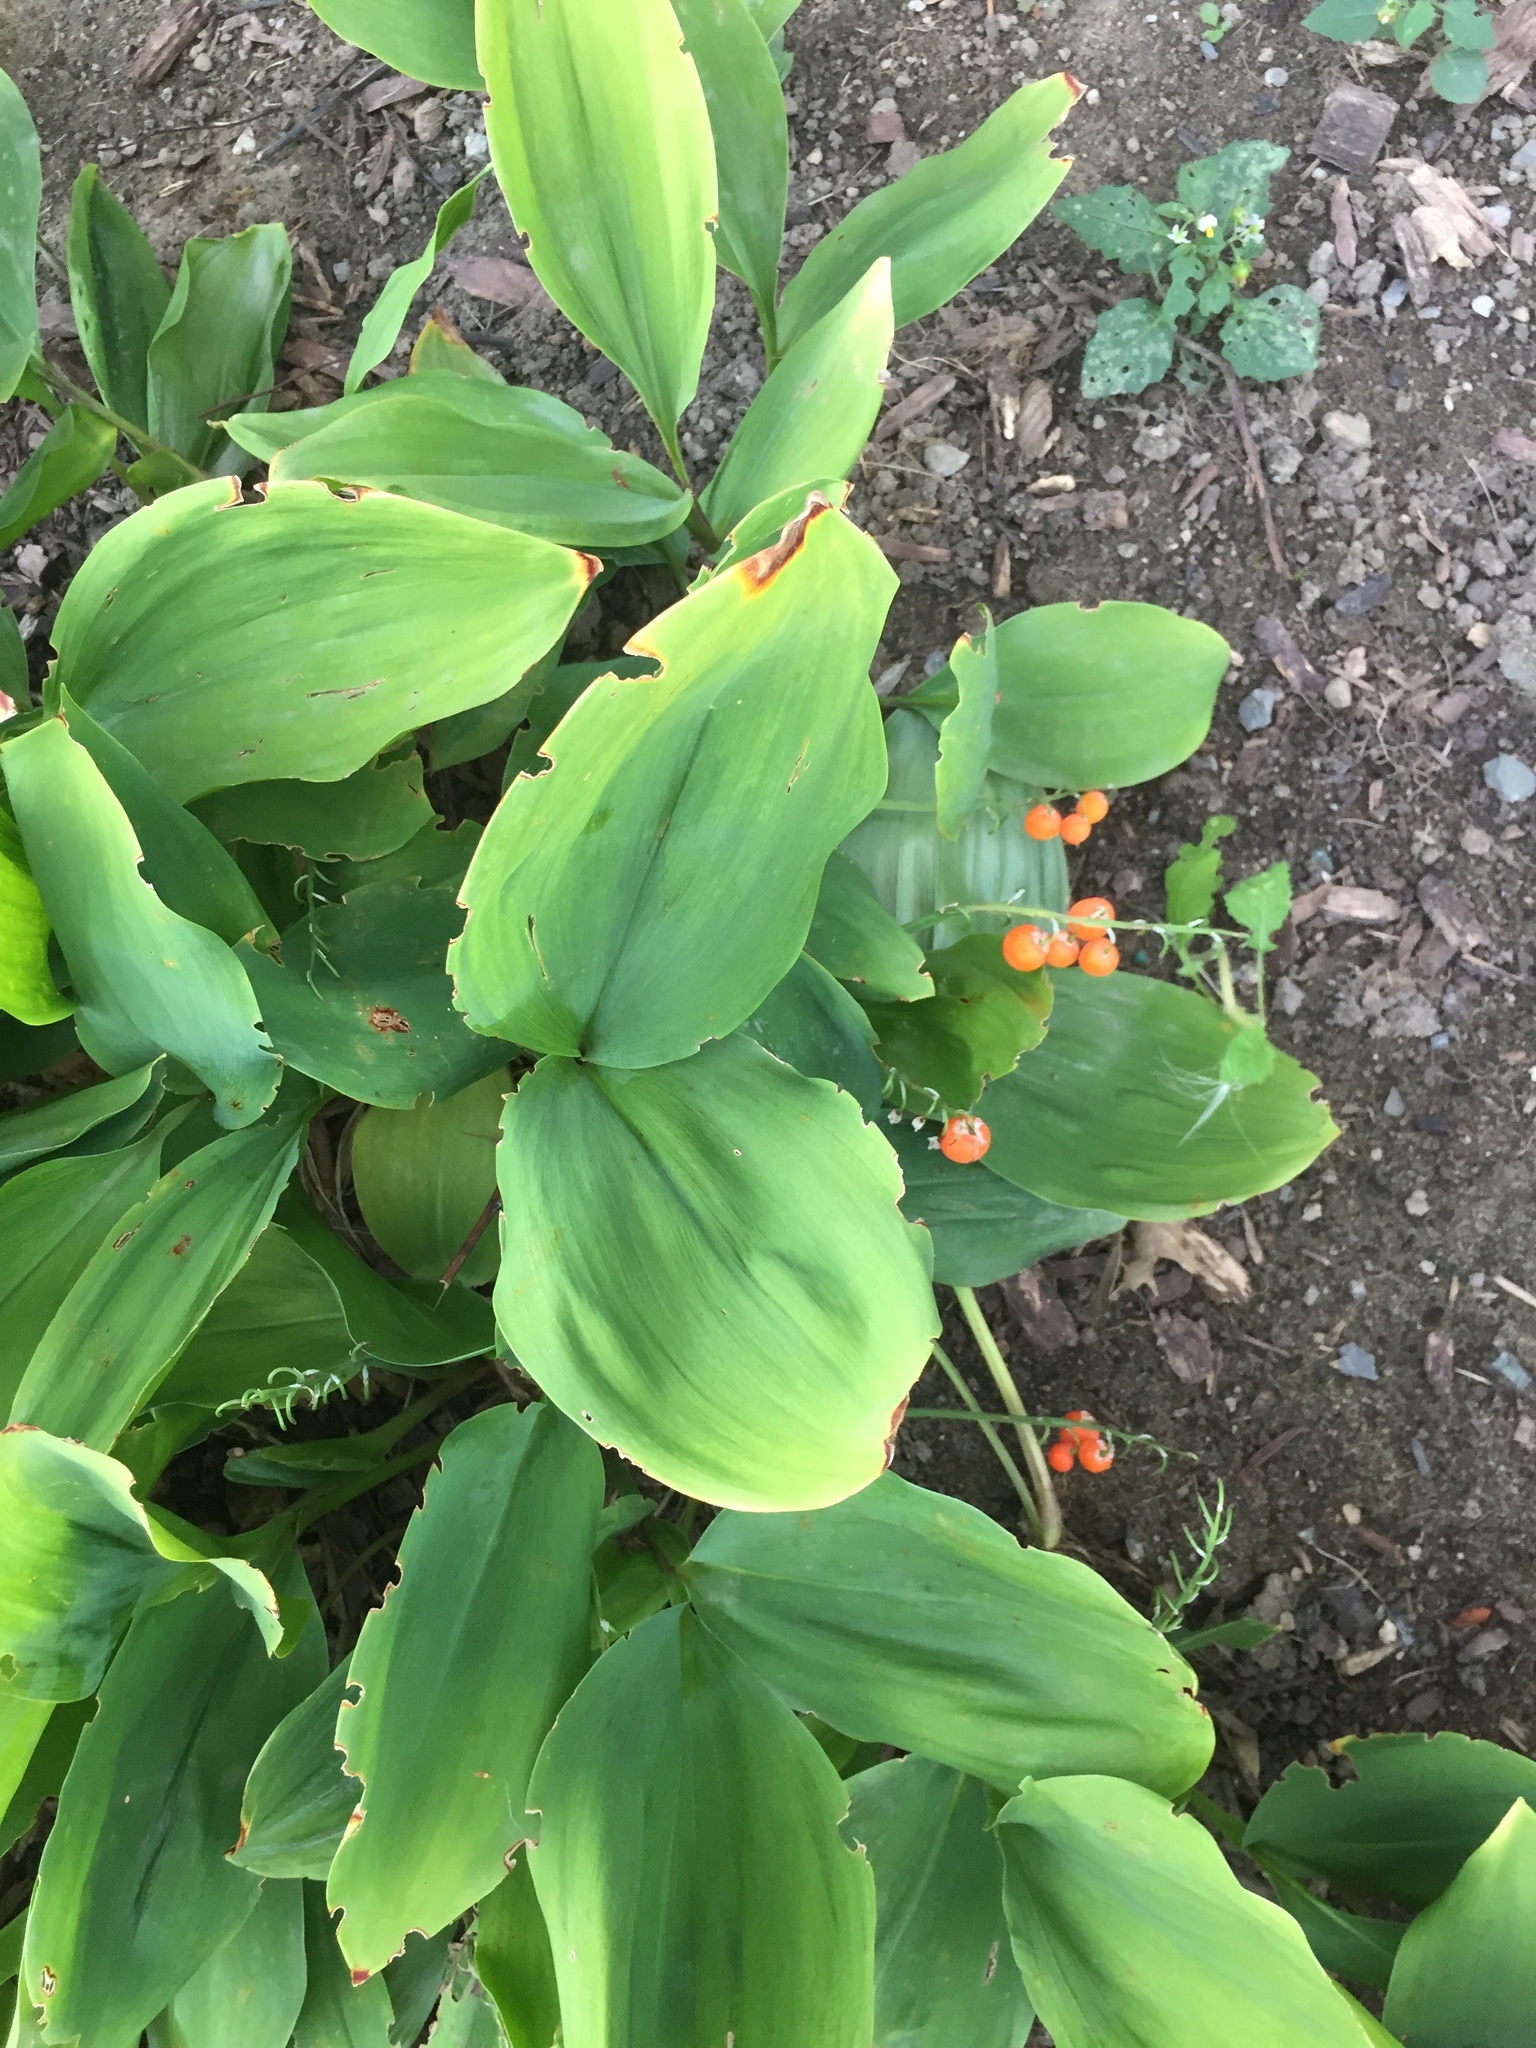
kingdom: Plantae
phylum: Tracheophyta
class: Liliopsida
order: Asparagales
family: Asparagaceae
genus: Convallaria
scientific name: Convallaria majalis
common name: Lily-of-the-valley
